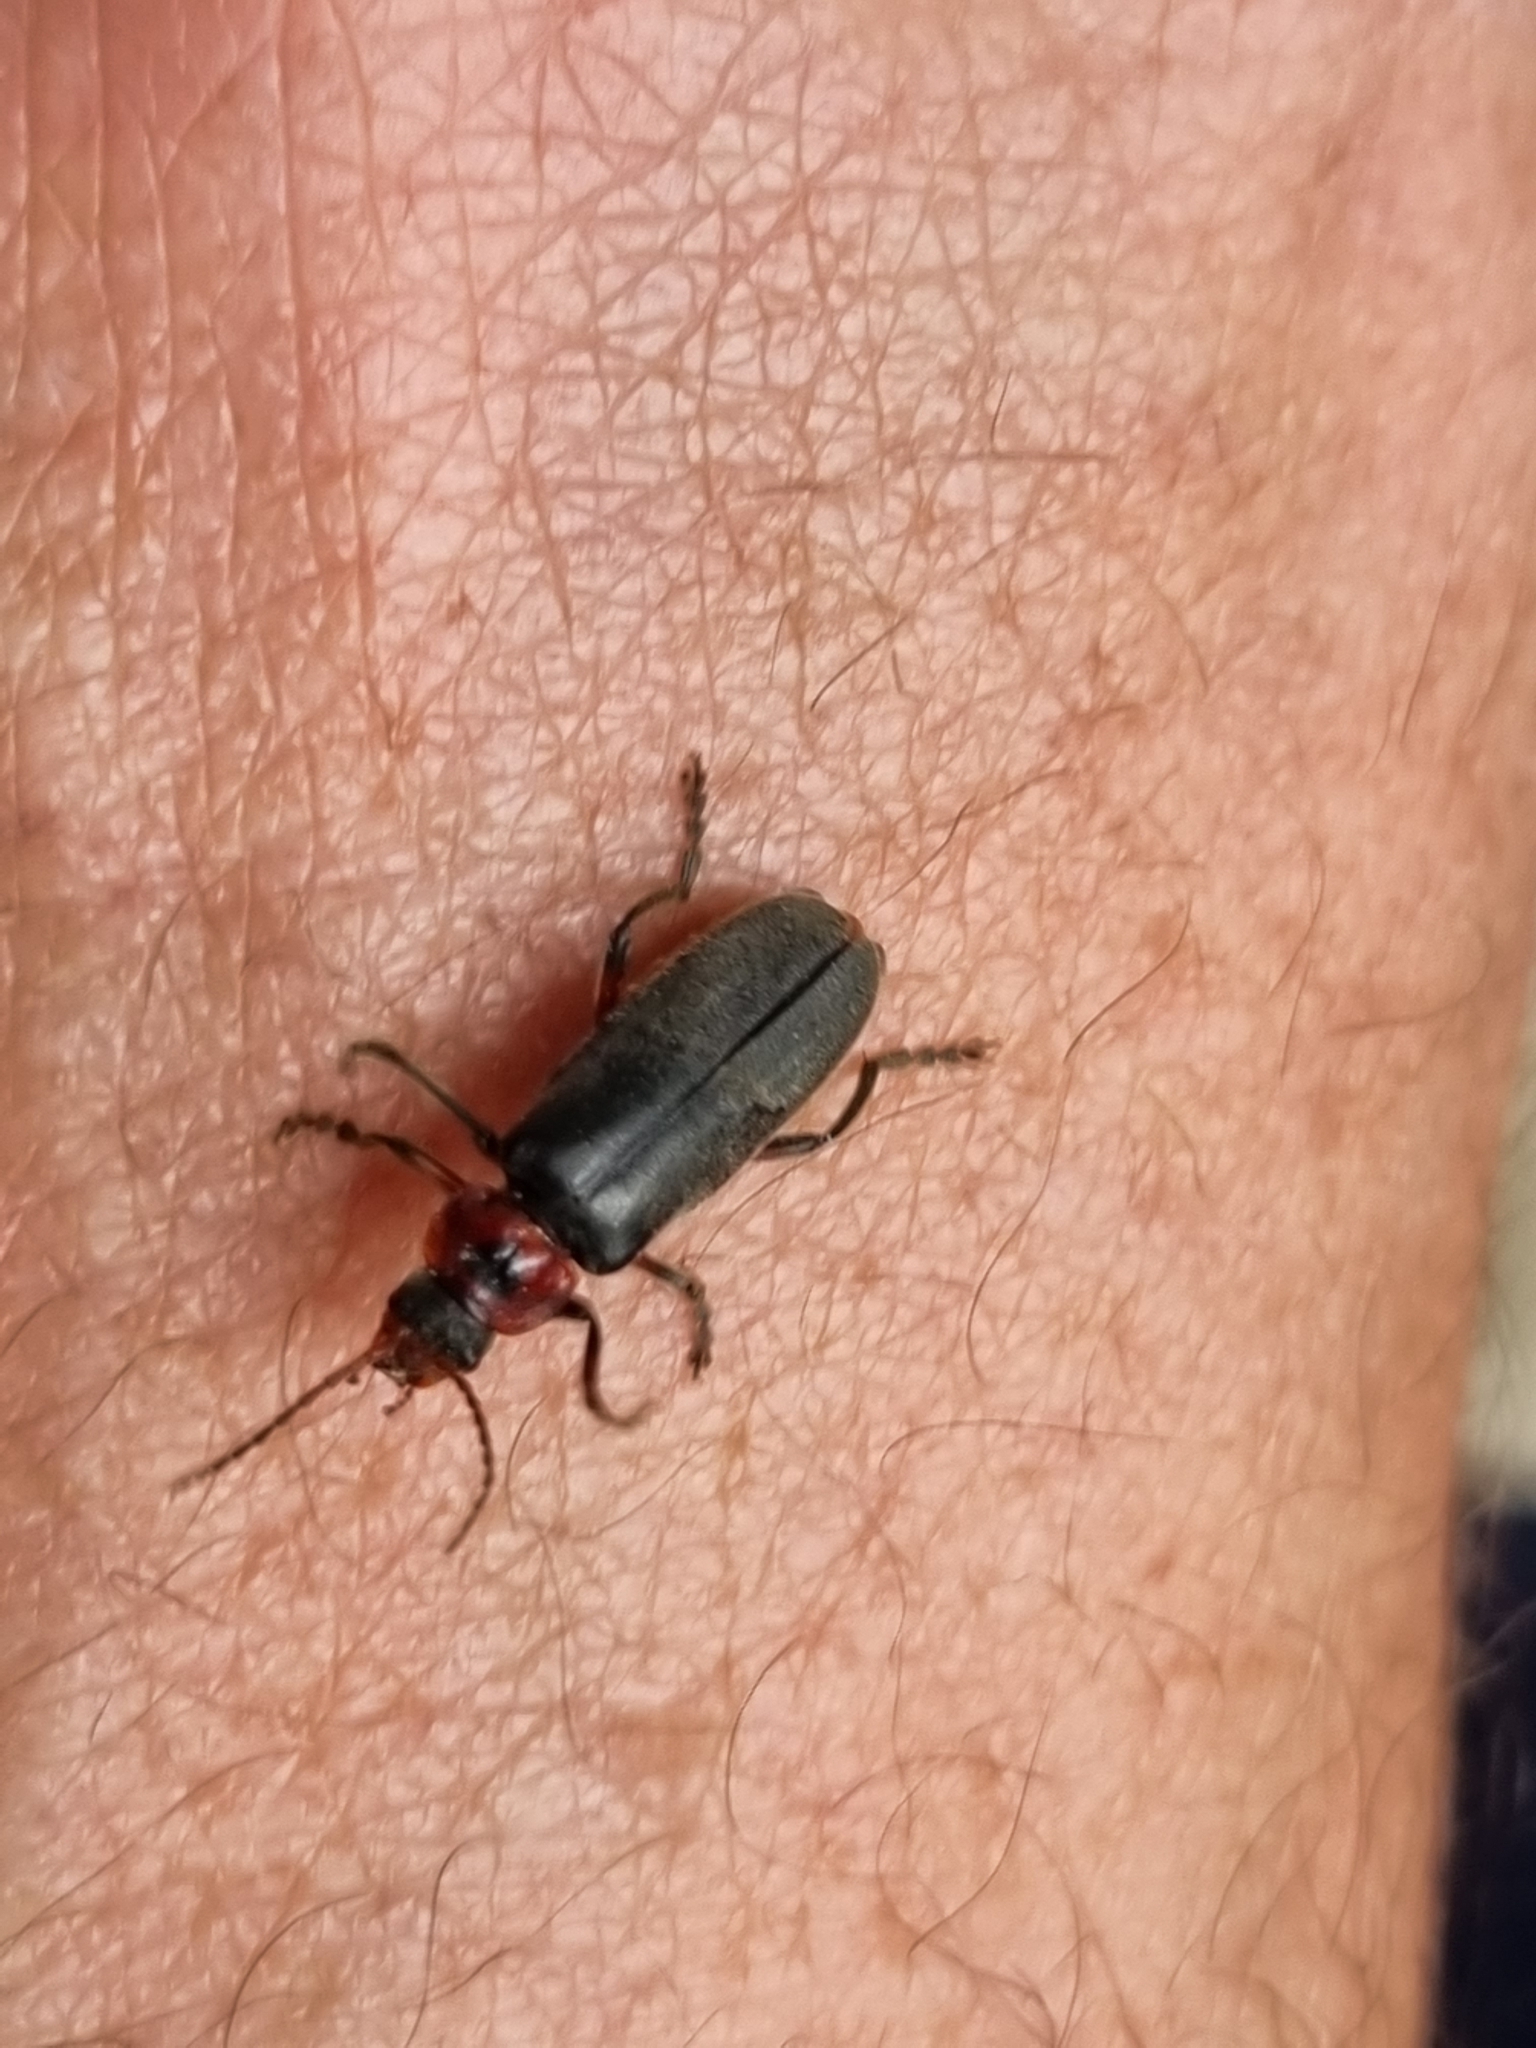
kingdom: Animalia
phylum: Arthropoda
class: Insecta
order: Coleoptera
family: Cantharidae
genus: Cantharis
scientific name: Cantharis rustica
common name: Soldier beetle
